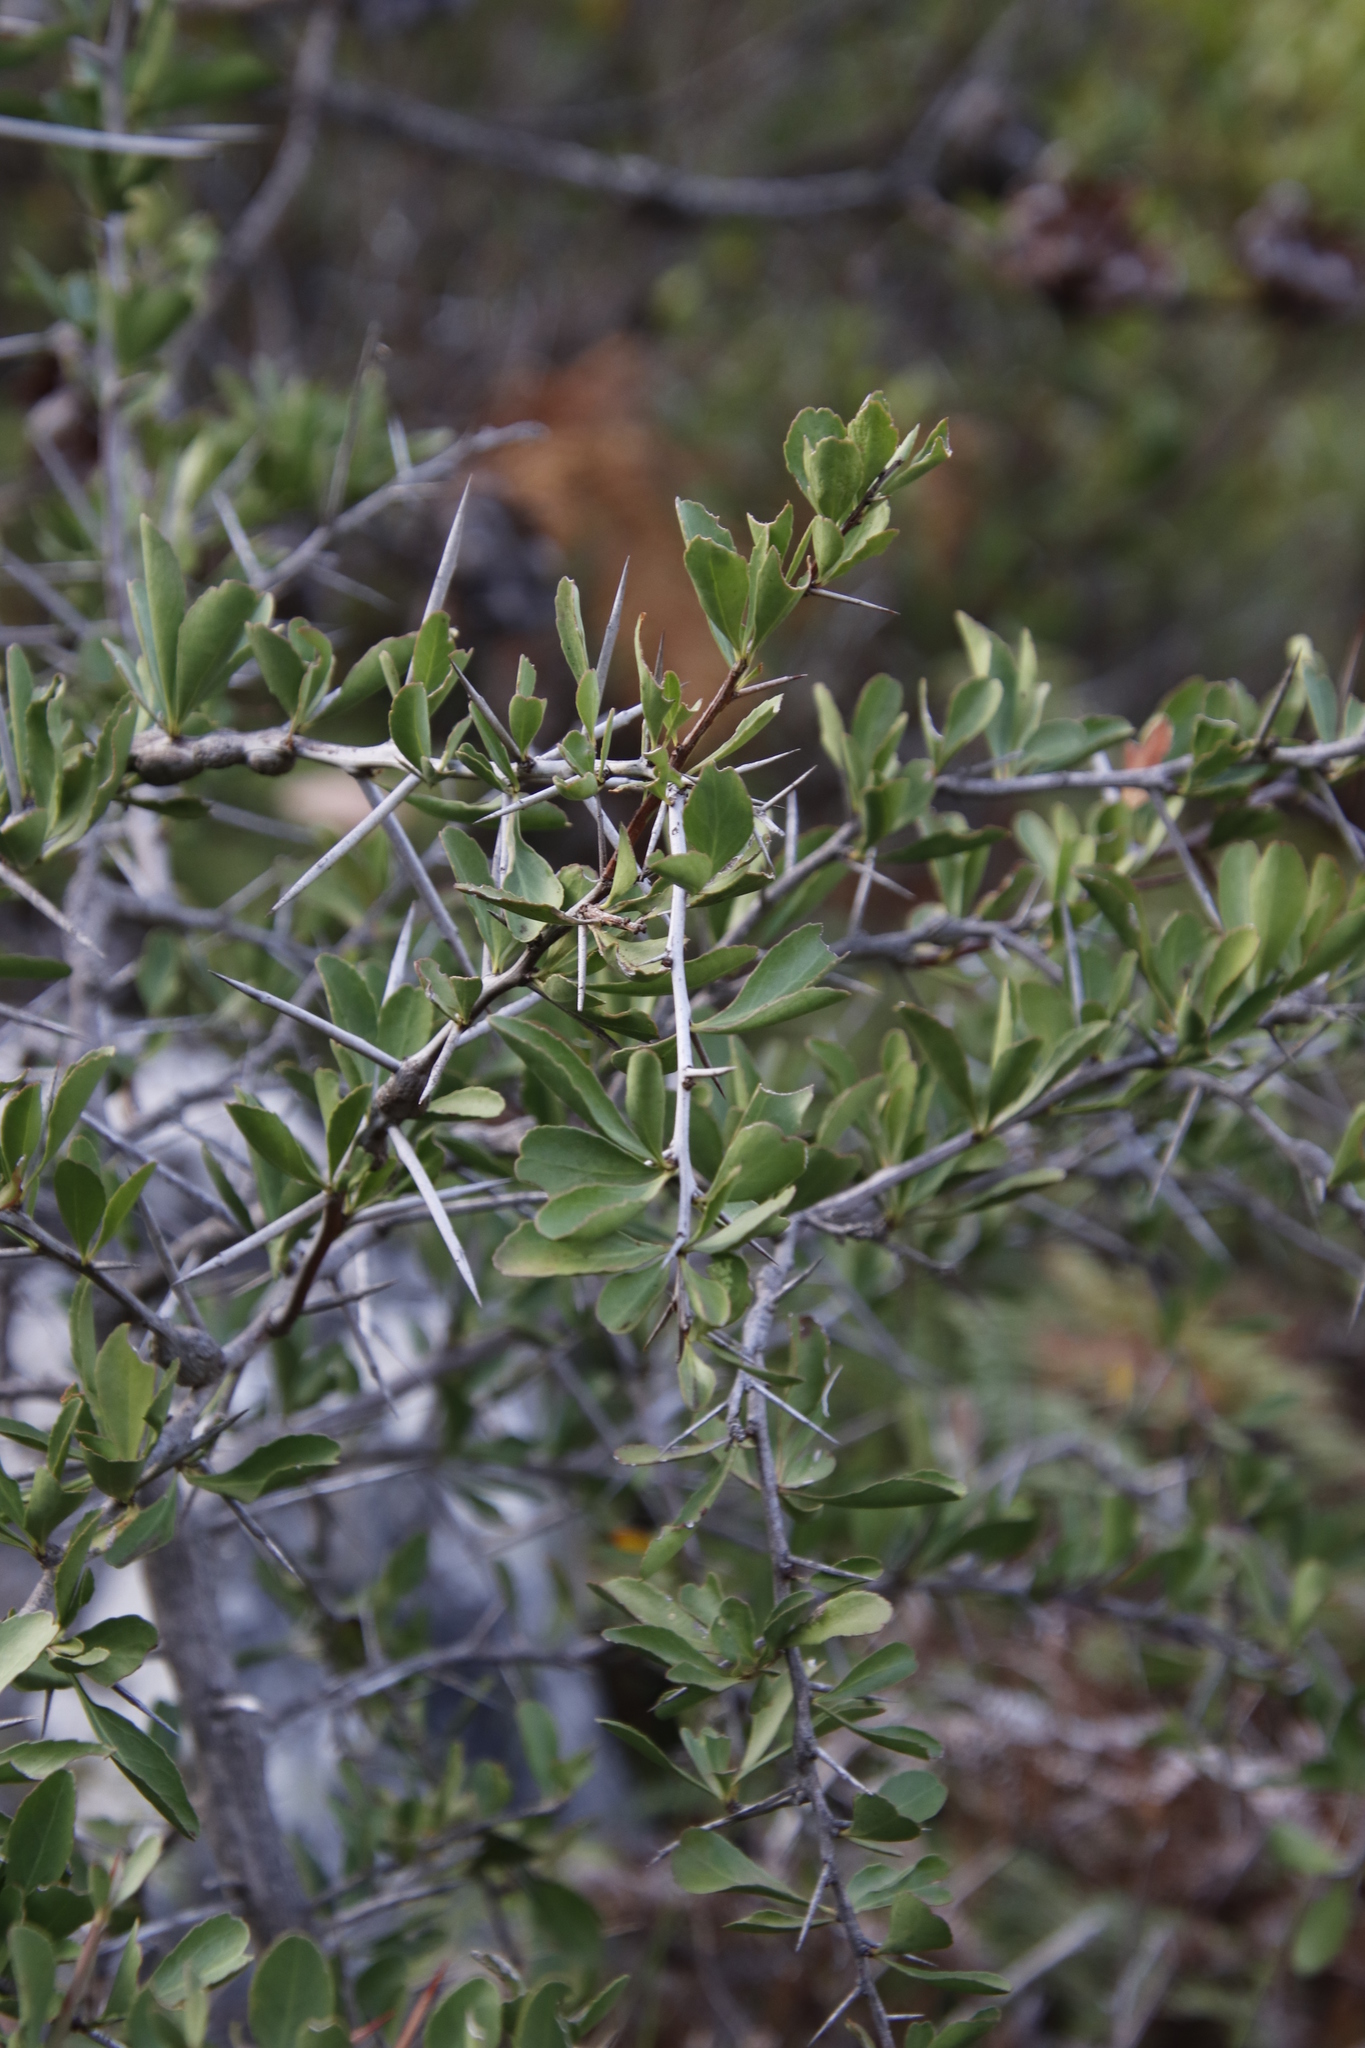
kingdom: Plantae
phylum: Tracheophyta
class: Magnoliopsida
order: Celastrales
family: Celastraceae
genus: Gymnosporia
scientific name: Gymnosporia buxifolia
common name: Common spike-thorn
